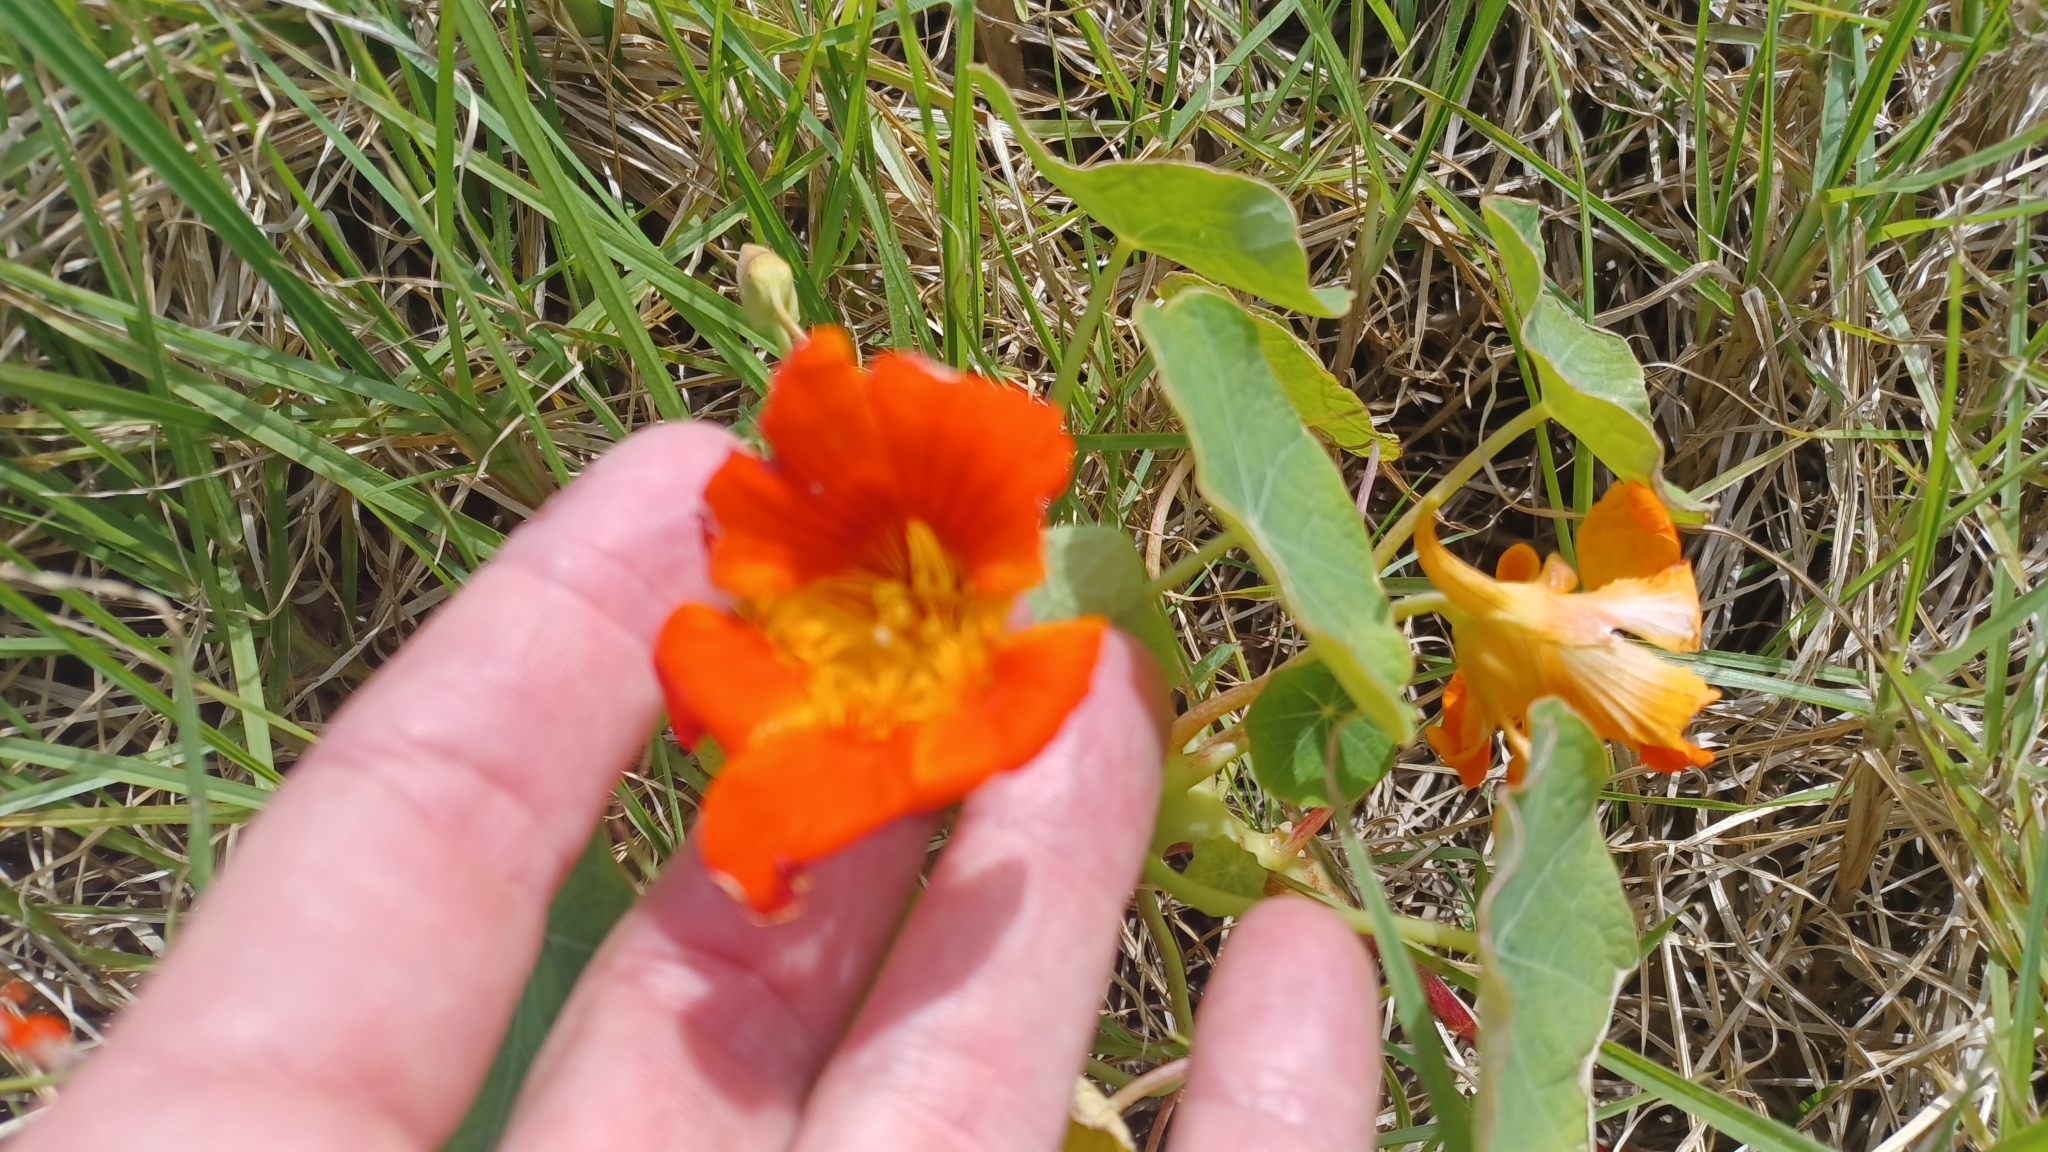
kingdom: Plantae
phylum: Tracheophyta
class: Magnoliopsida
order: Brassicales
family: Tropaeolaceae
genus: Tropaeolum
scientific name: Tropaeolum majus
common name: Nasturtium
